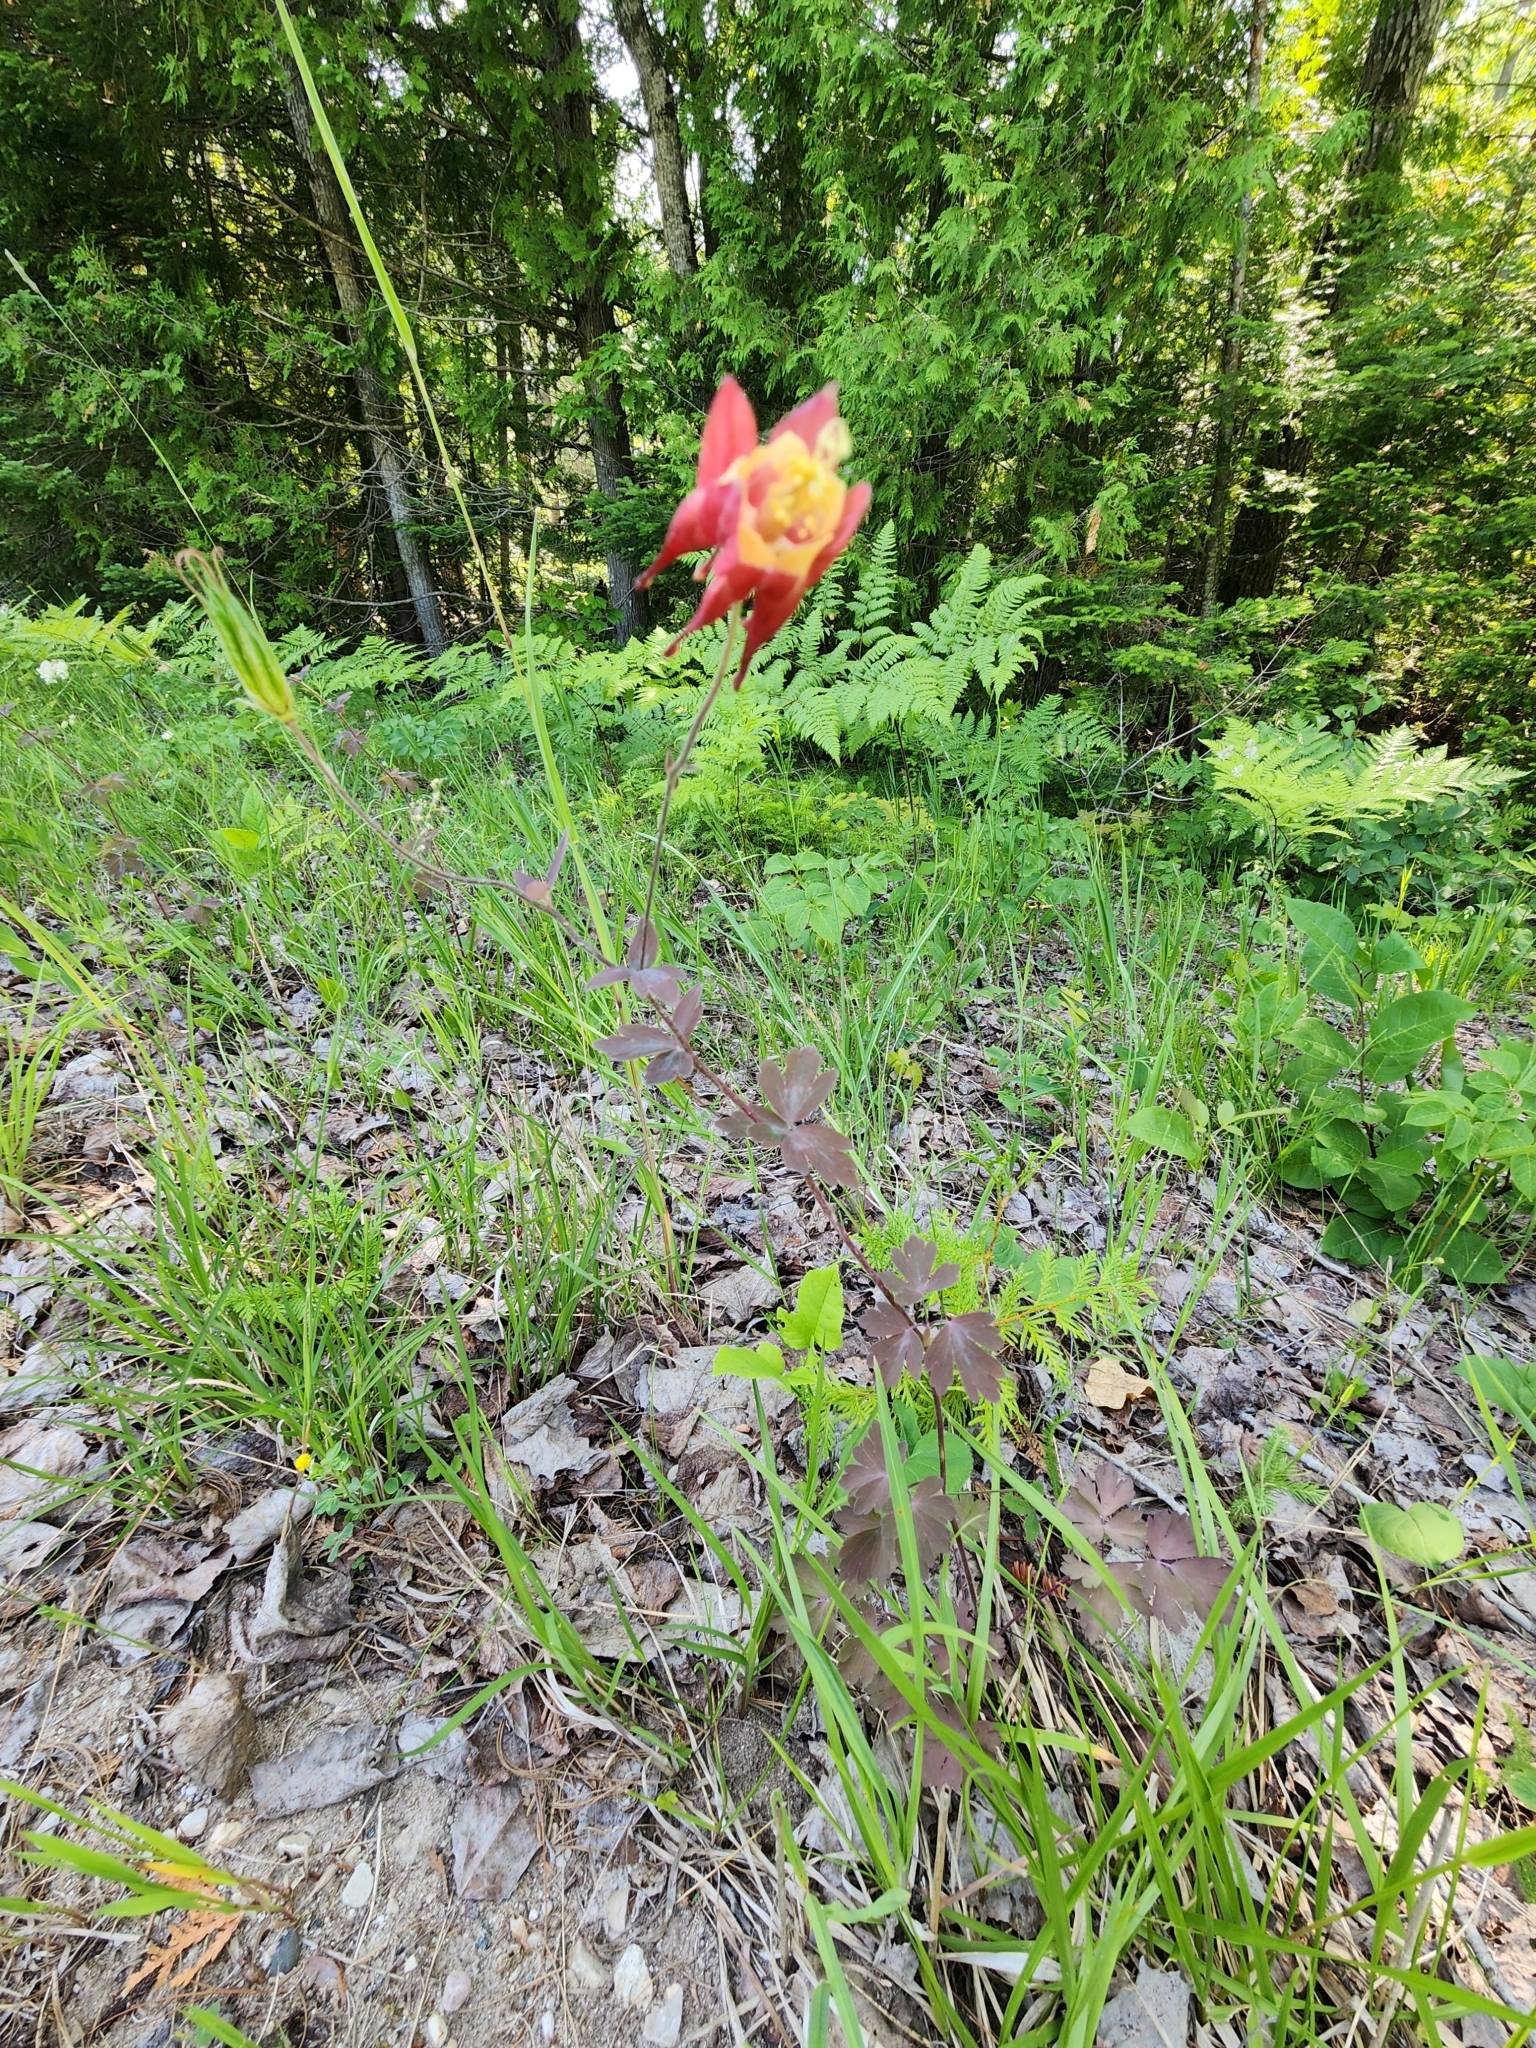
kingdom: Plantae
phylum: Tracheophyta
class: Magnoliopsida
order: Ranunculales
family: Ranunculaceae
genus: Aquilegia
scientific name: Aquilegia canadensis
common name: American columbine
